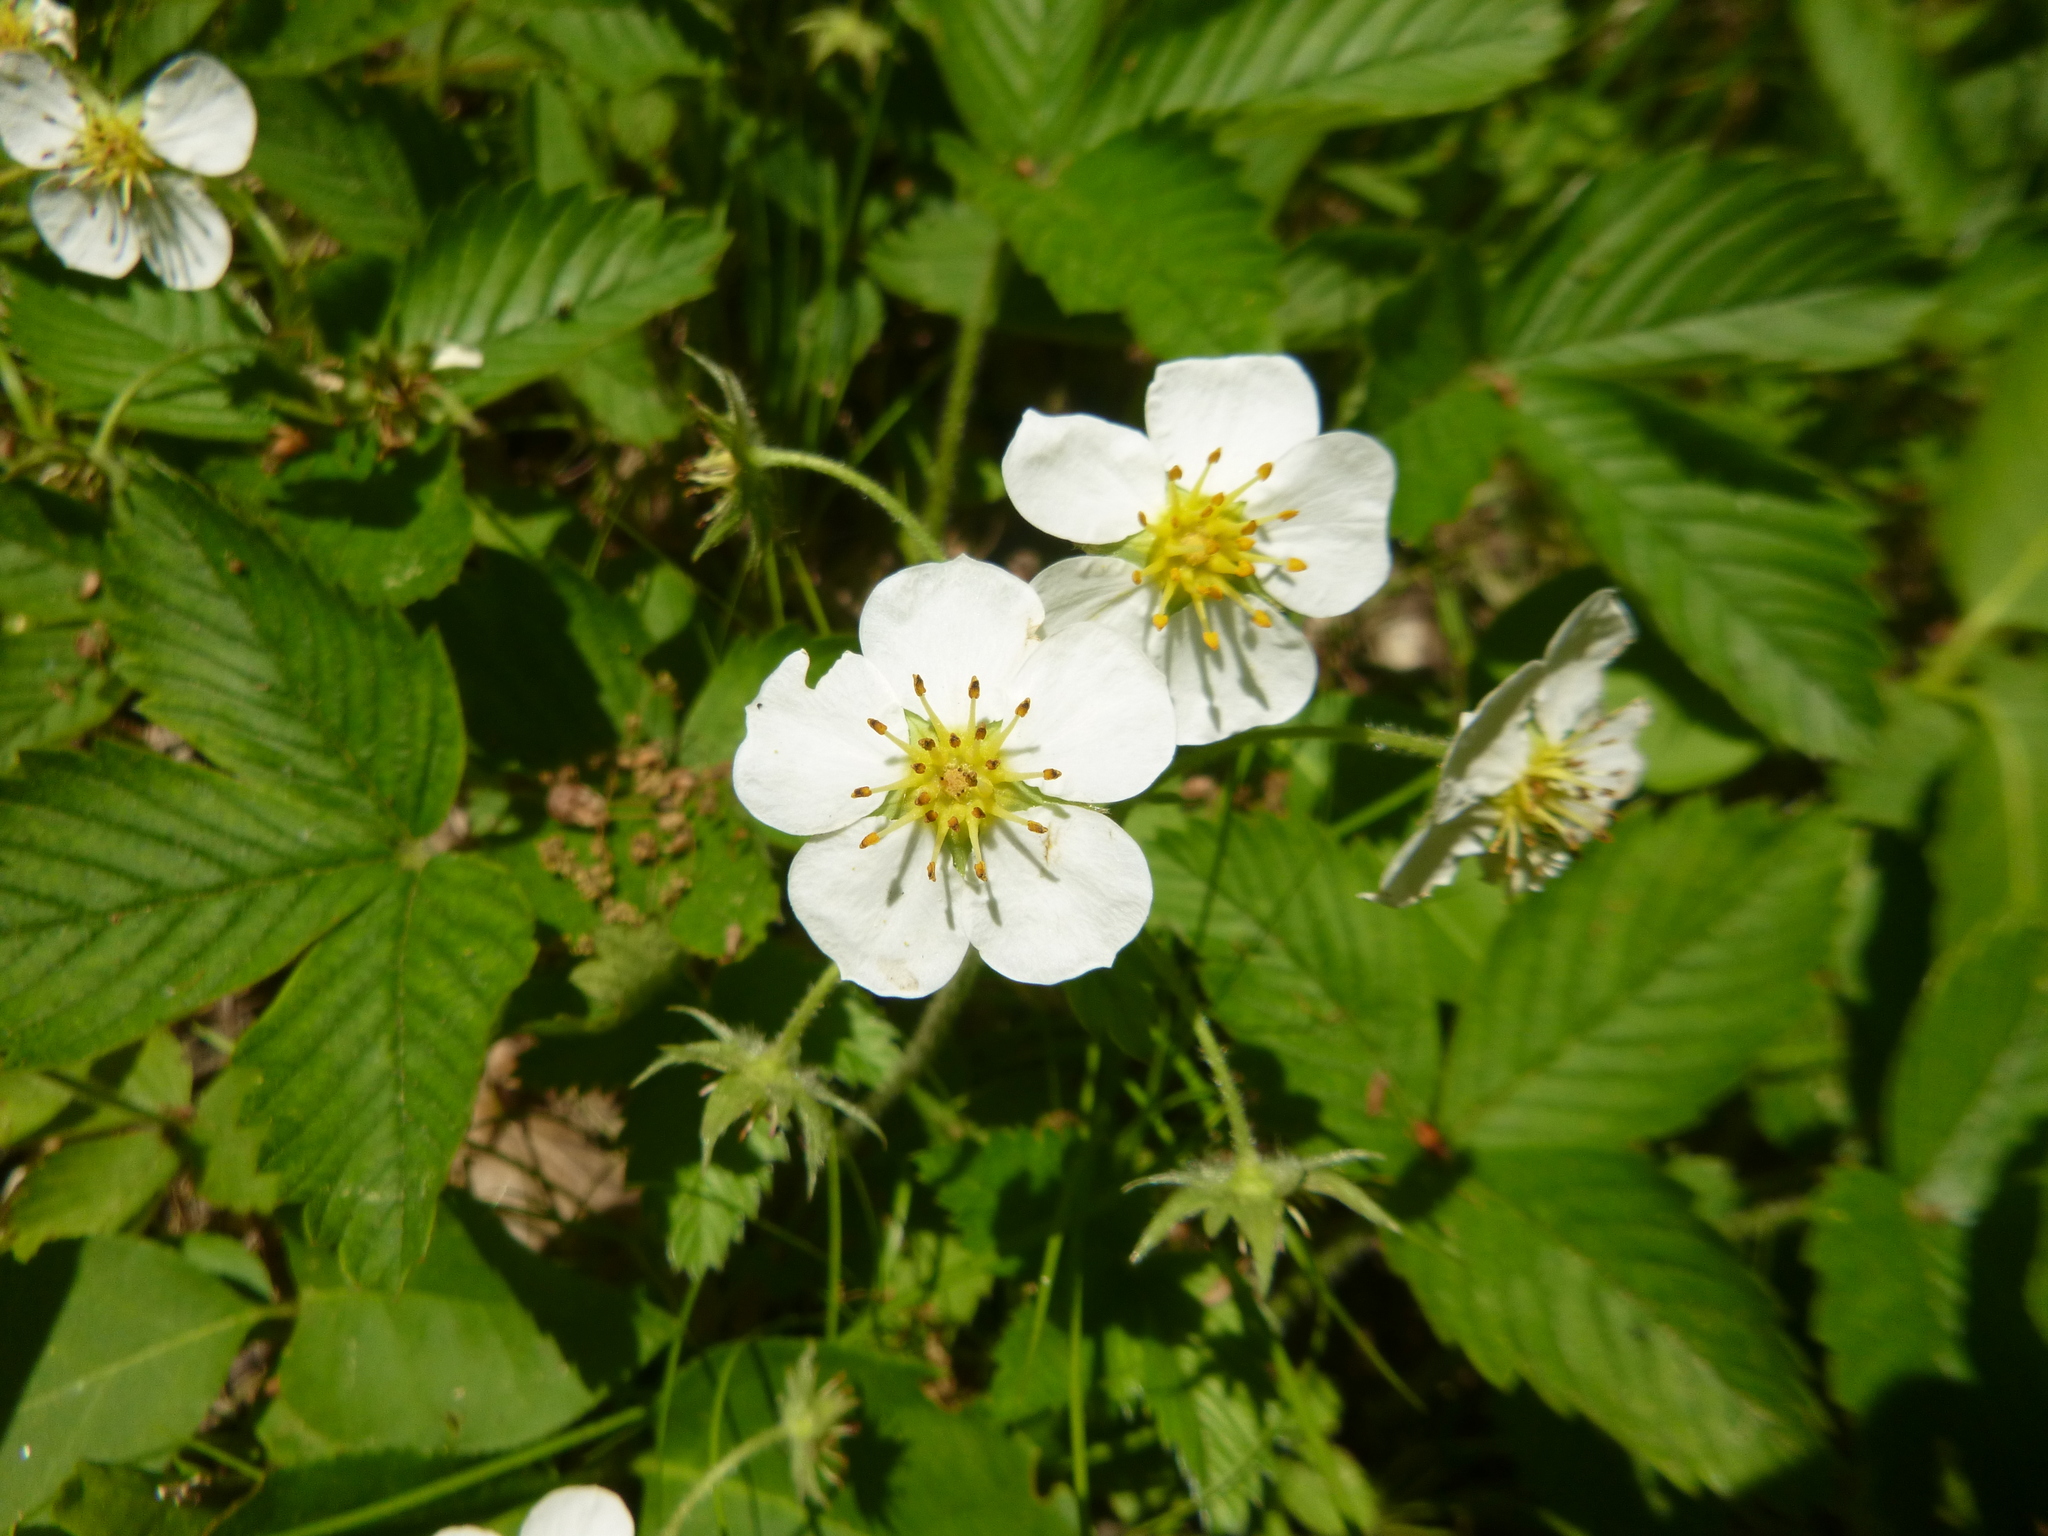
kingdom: Plantae
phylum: Tracheophyta
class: Magnoliopsida
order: Rosales
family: Rosaceae
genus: Fragaria
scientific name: Fragaria moschata
